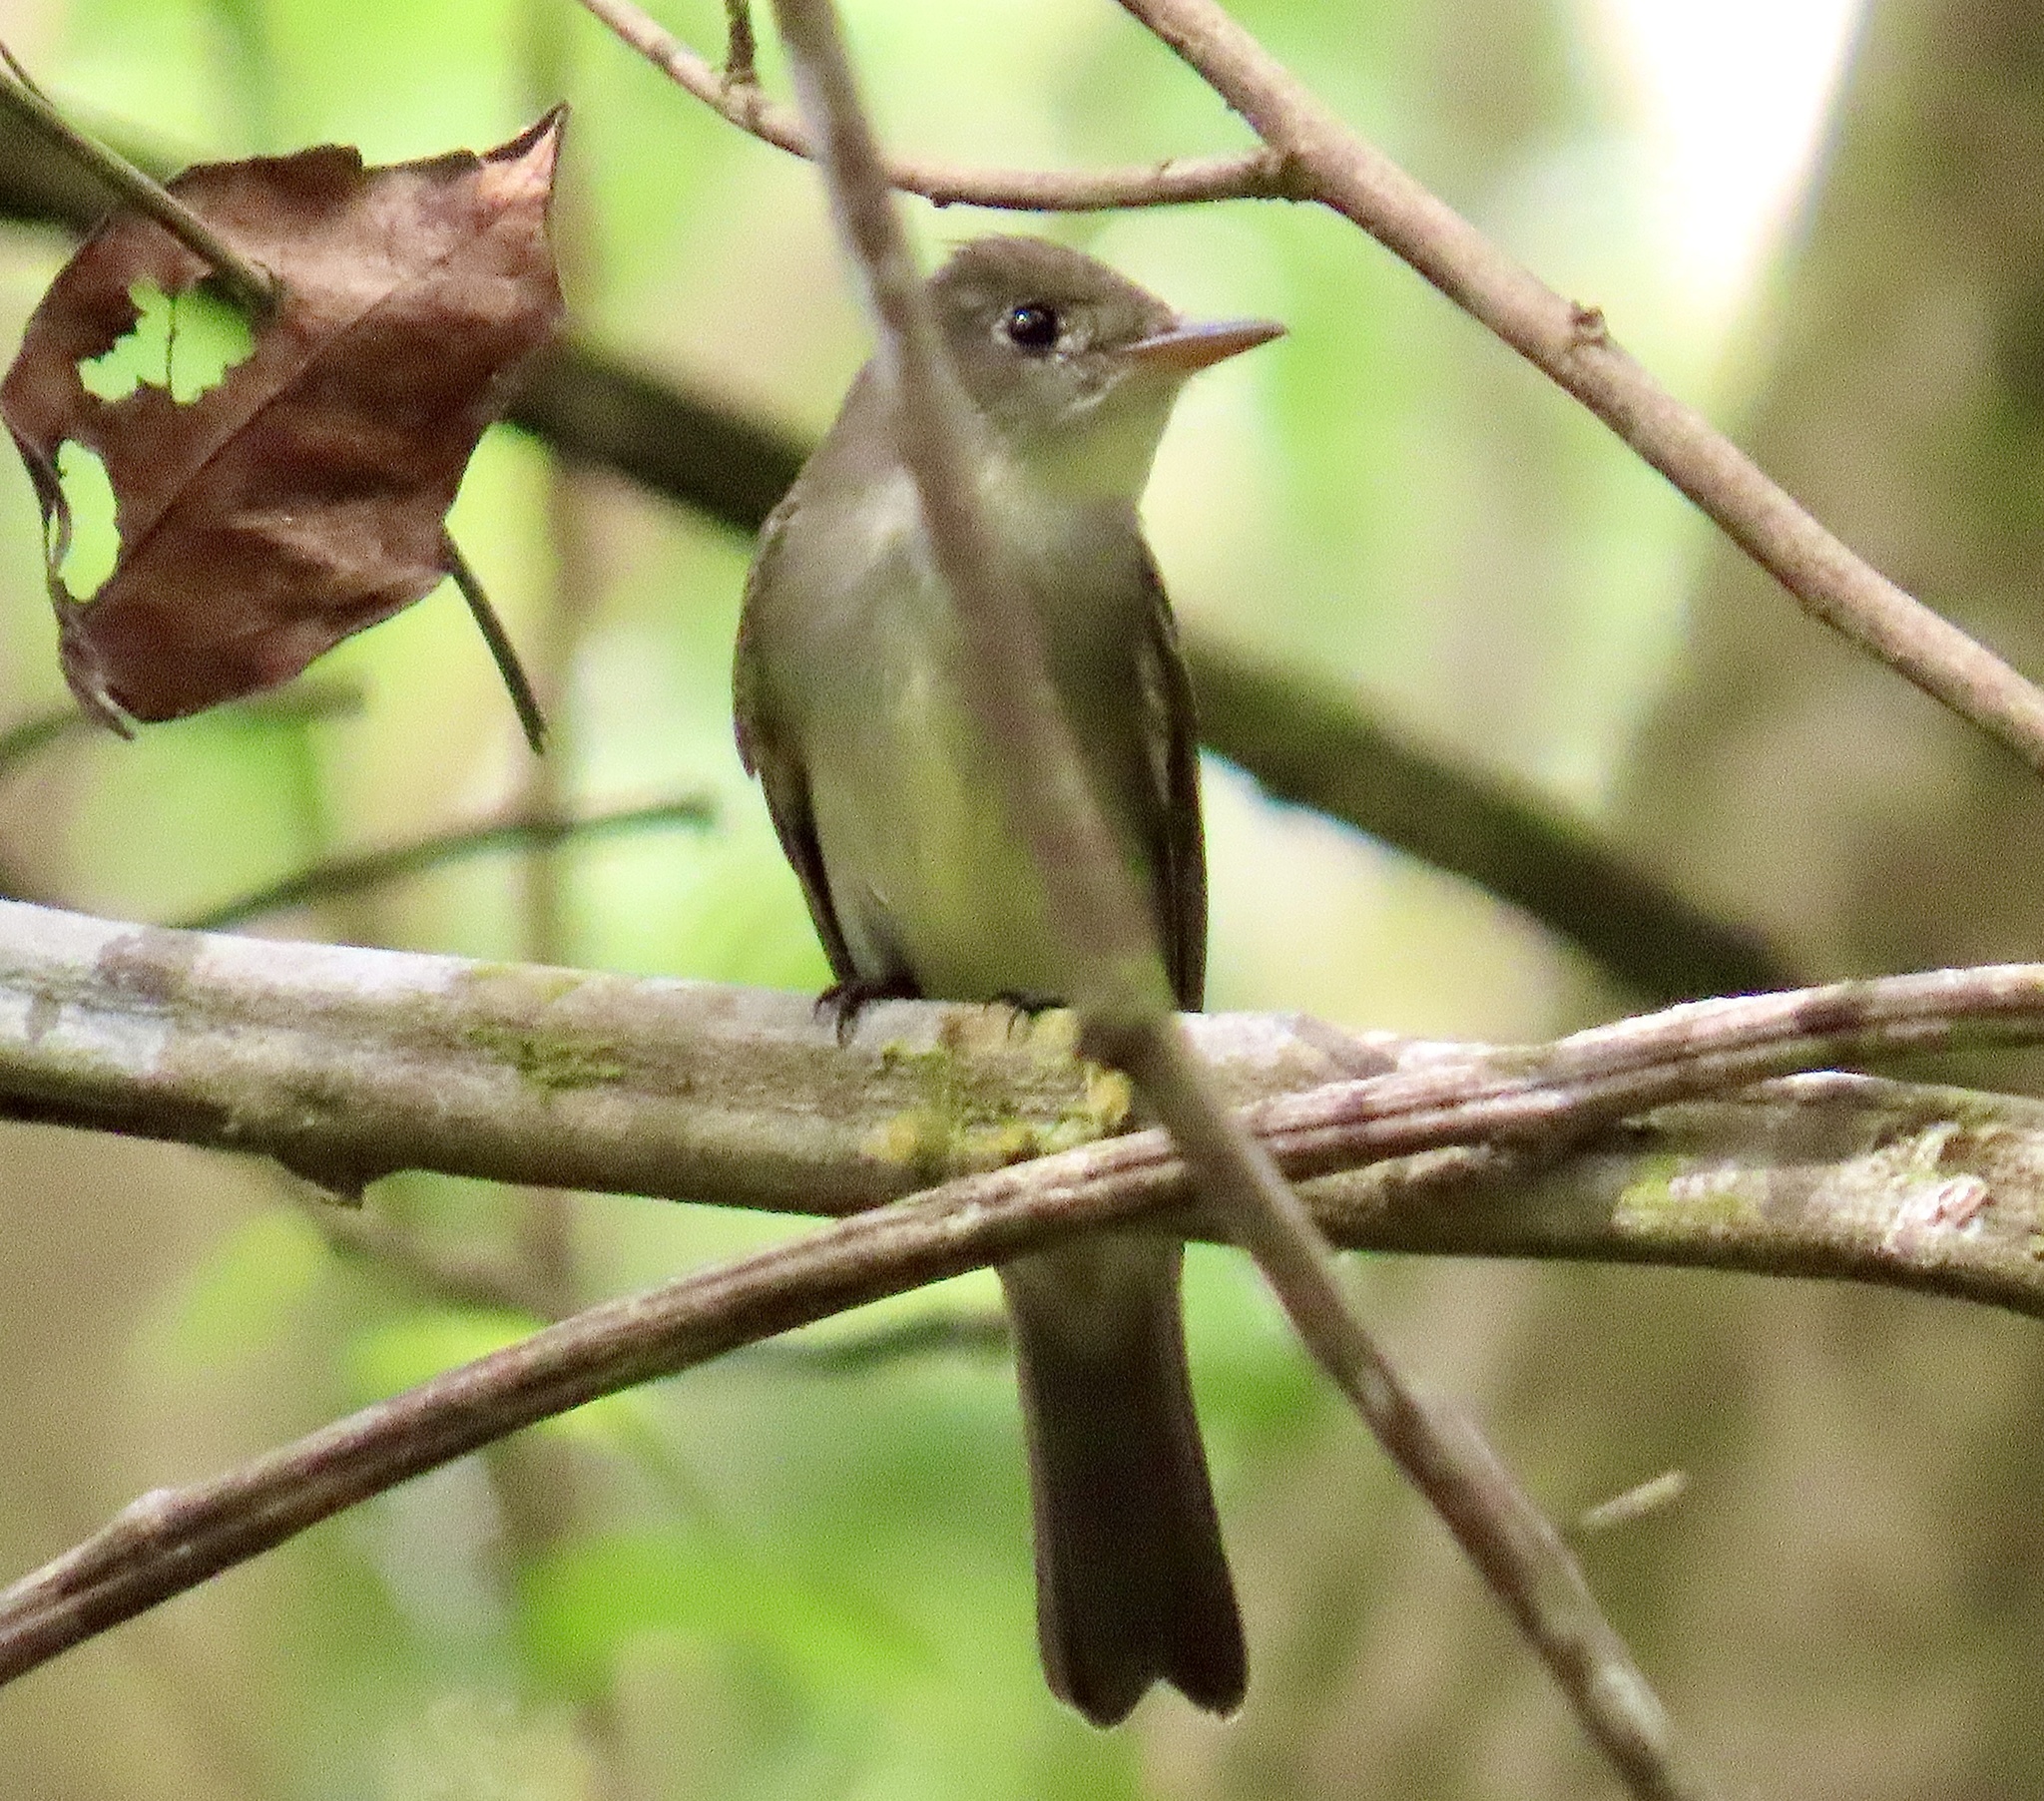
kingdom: Animalia
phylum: Chordata
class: Aves
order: Passeriformes
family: Tyrannidae
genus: Contopus
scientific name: Contopus virens
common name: Eastern wood-pewee
